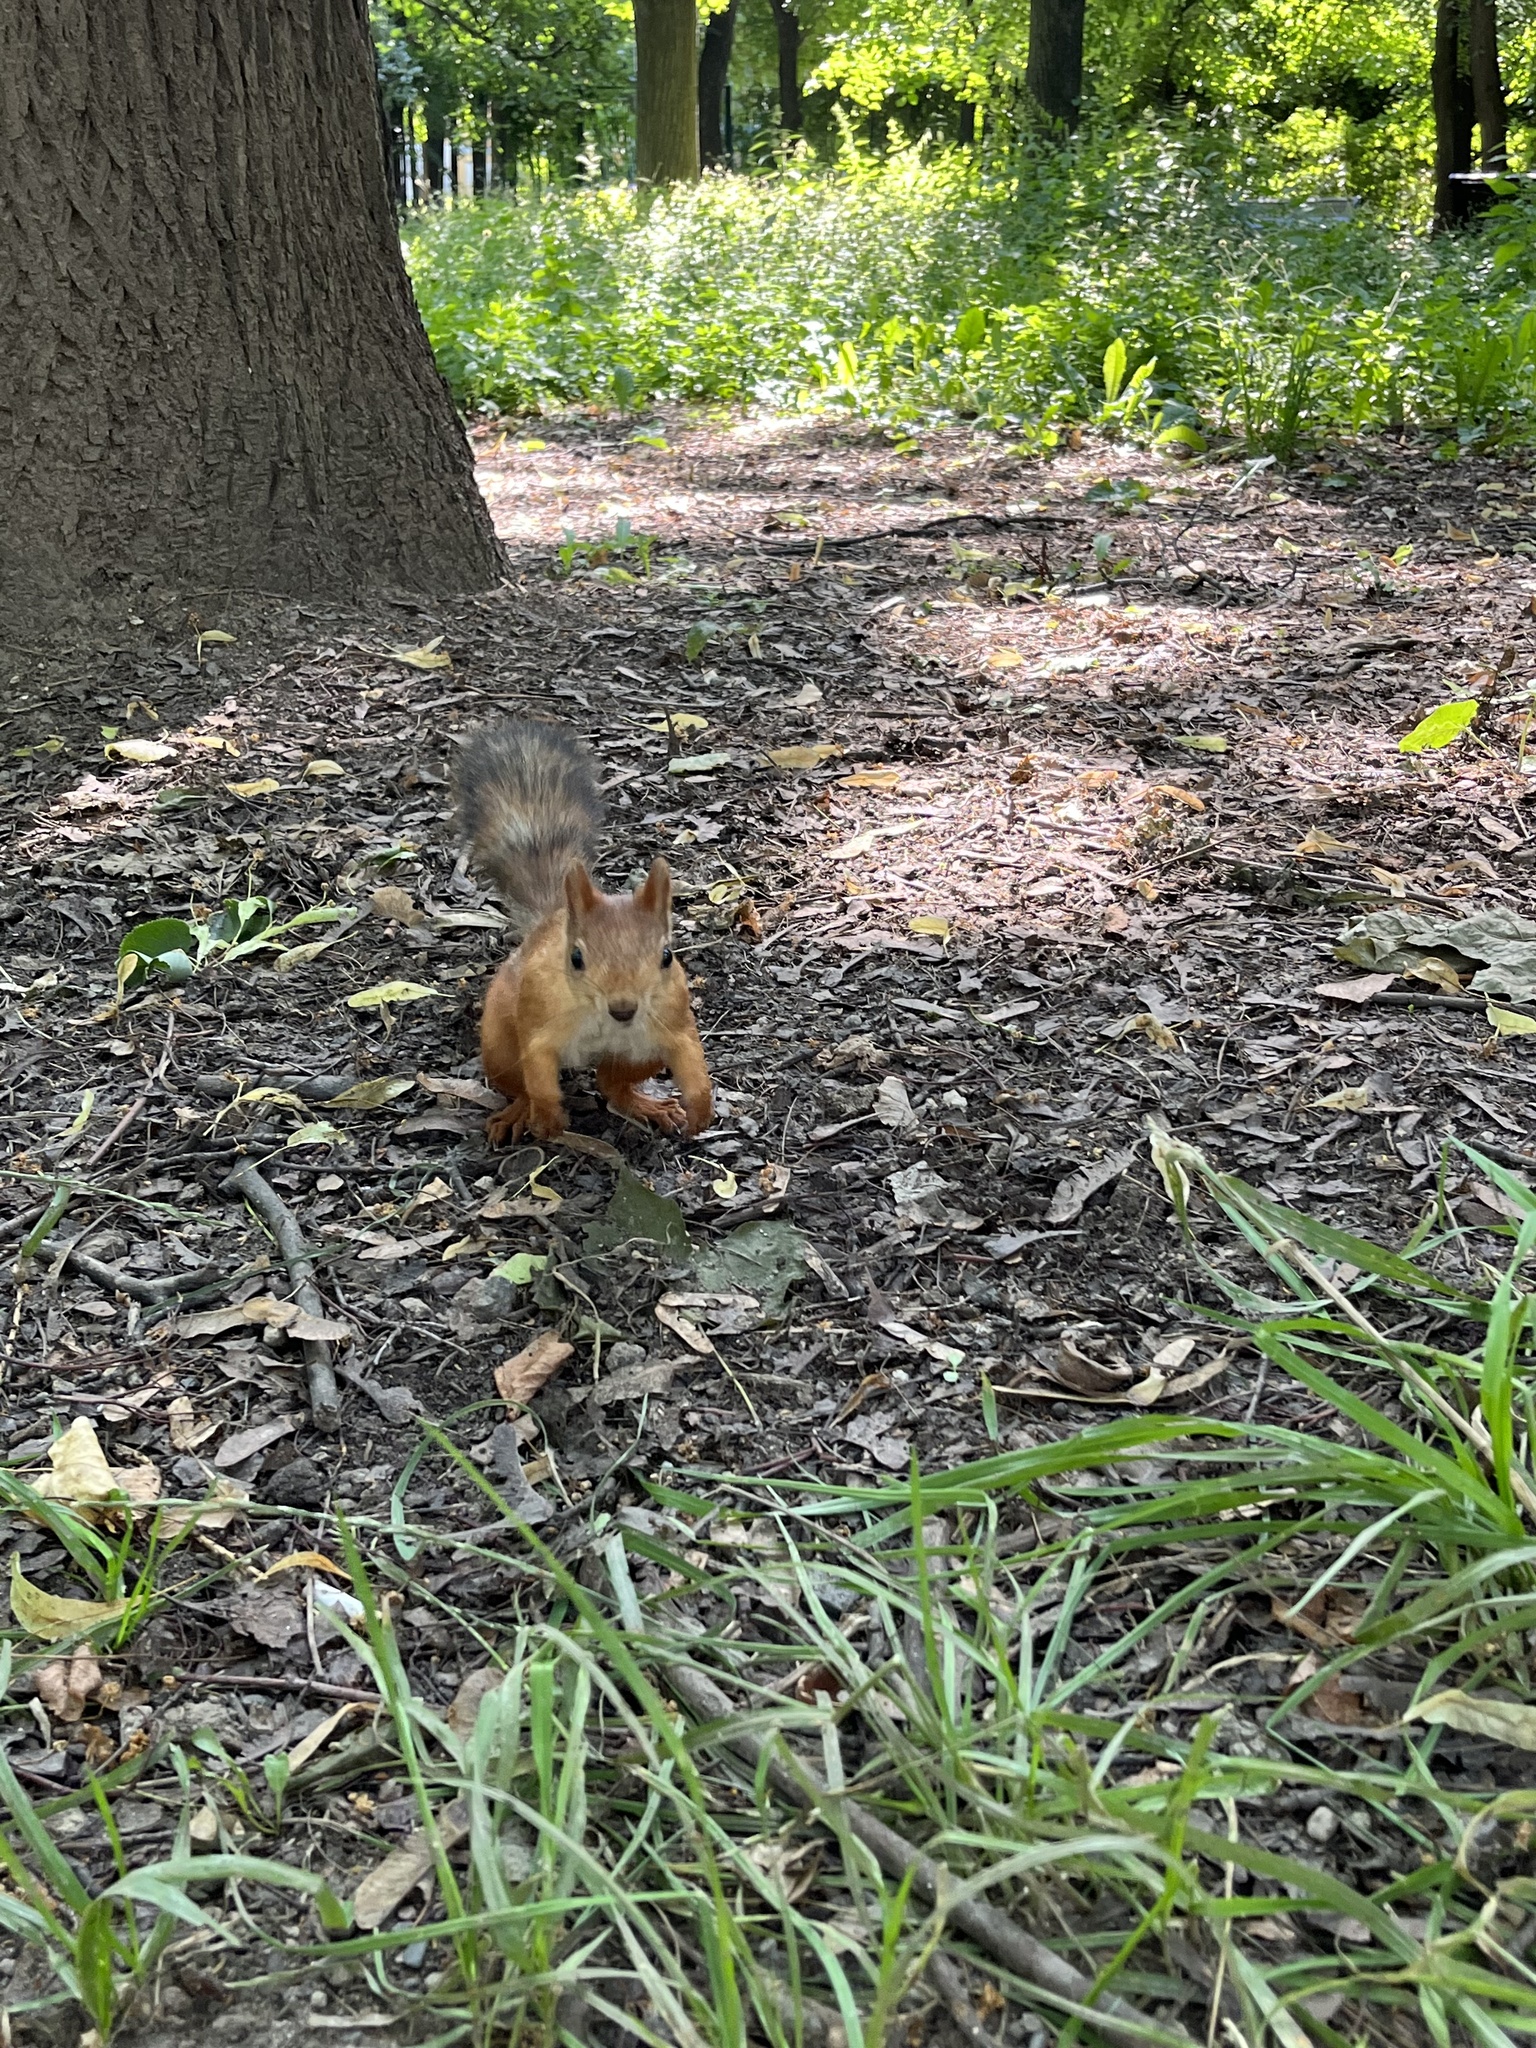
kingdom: Animalia
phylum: Chordata
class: Mammalia
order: Rodentia
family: Sciuridae
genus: Sciurus
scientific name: Sciurus vulgaris
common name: Eurasian red squirrel
